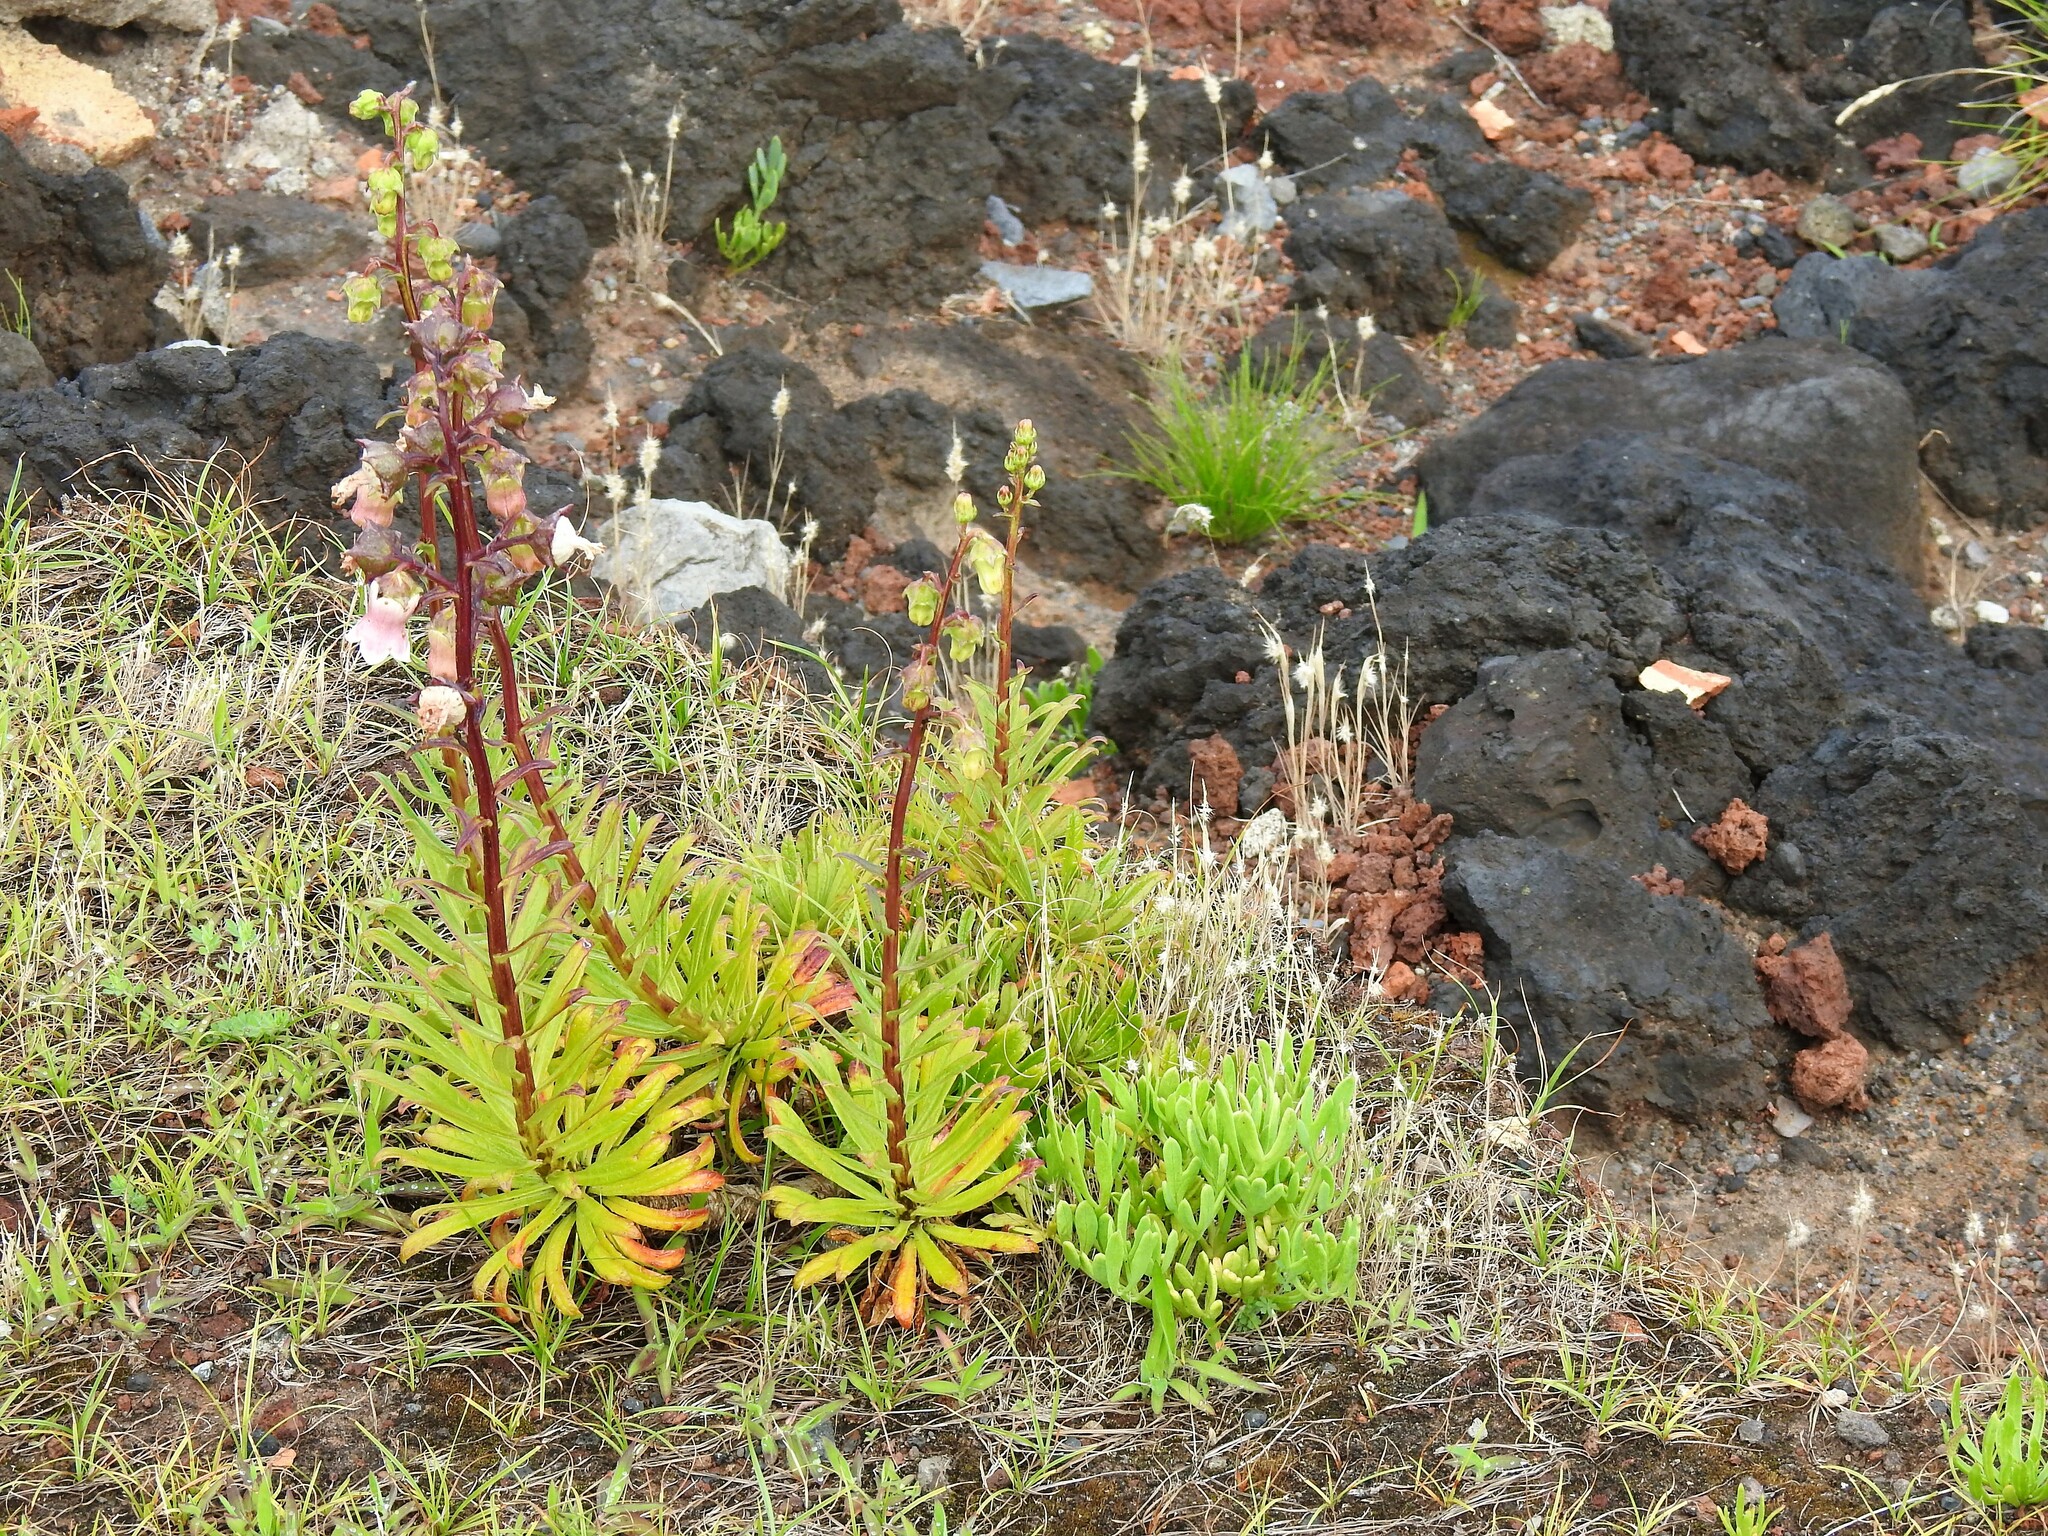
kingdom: Plantae
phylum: Tracheophyta
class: Magnoliopsida
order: Asterales
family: Campanulaceae
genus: Campanula
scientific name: Campanula vidalii
